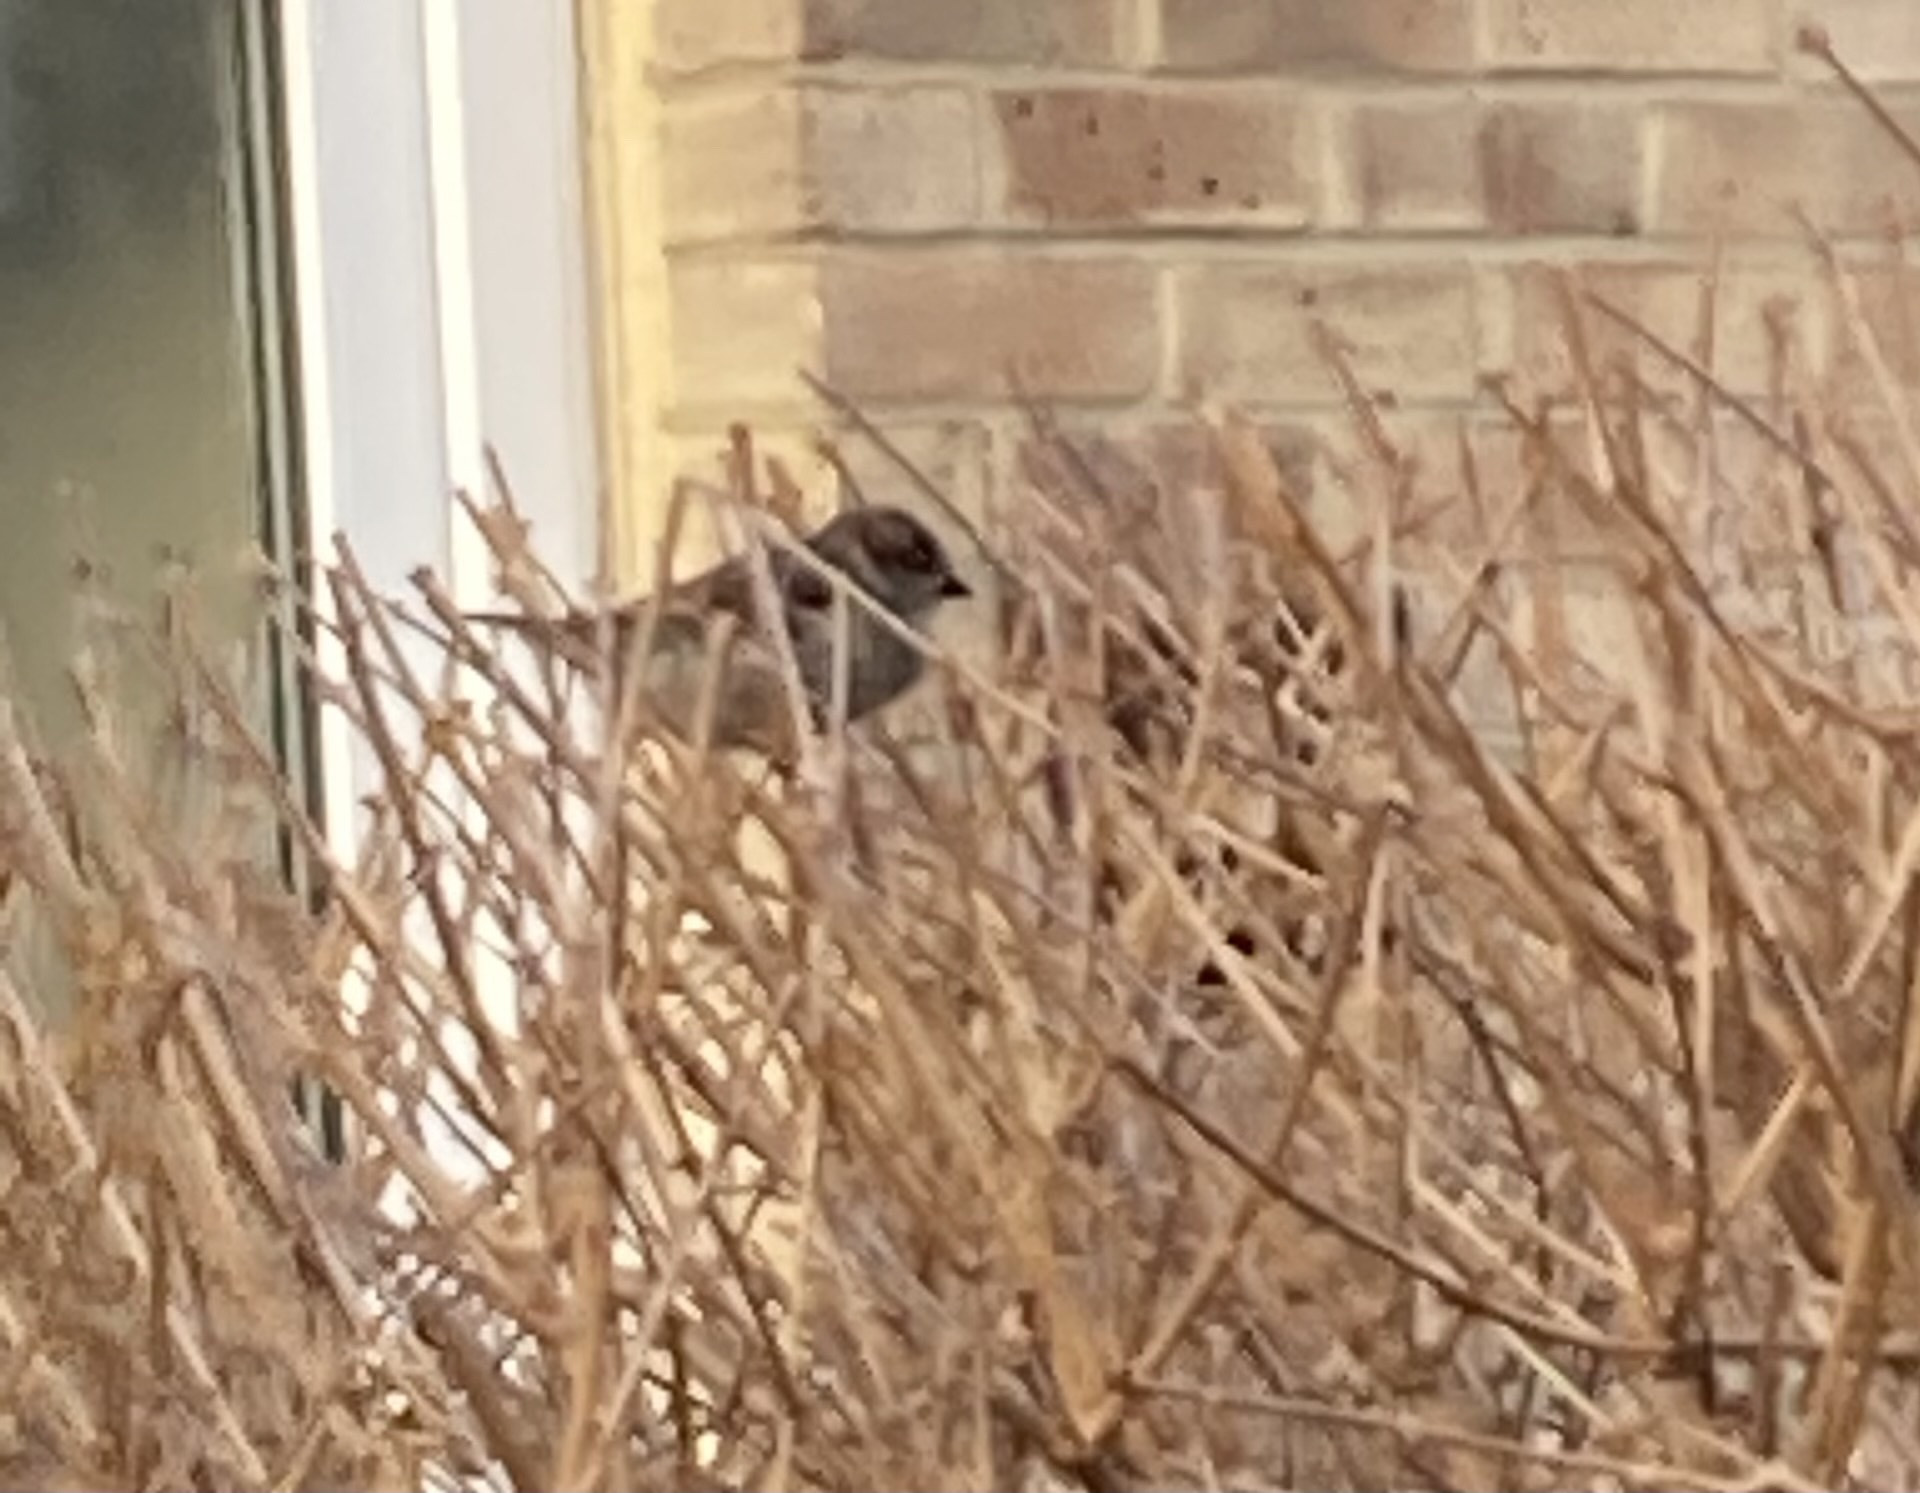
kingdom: Animalia
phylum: Chordata
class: Aves
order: Passeriformes
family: Passeridae
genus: Passer
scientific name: Passer domesticus
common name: House sparrow
